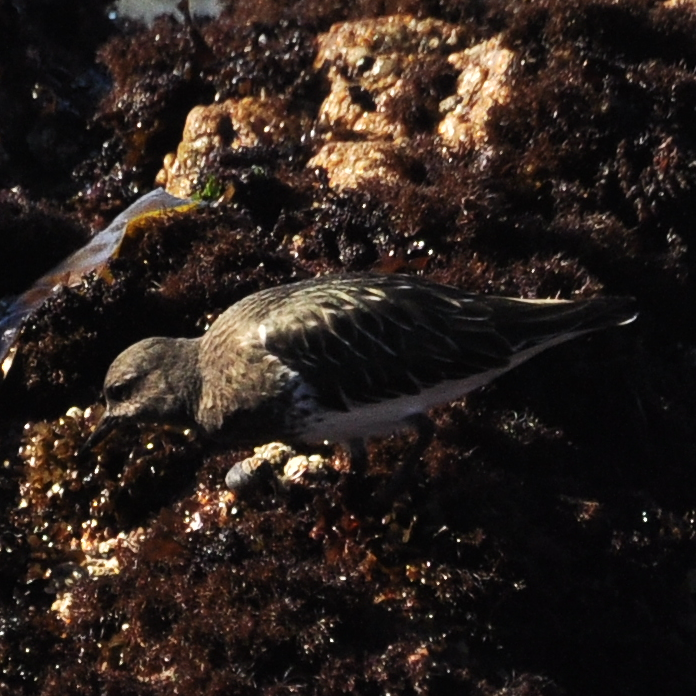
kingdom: Animalia
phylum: Chordata
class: Aves
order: Charadriiformes
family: Scolopacidae
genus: Arenaria
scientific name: Arenaria melanocephala
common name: Black turnstone
